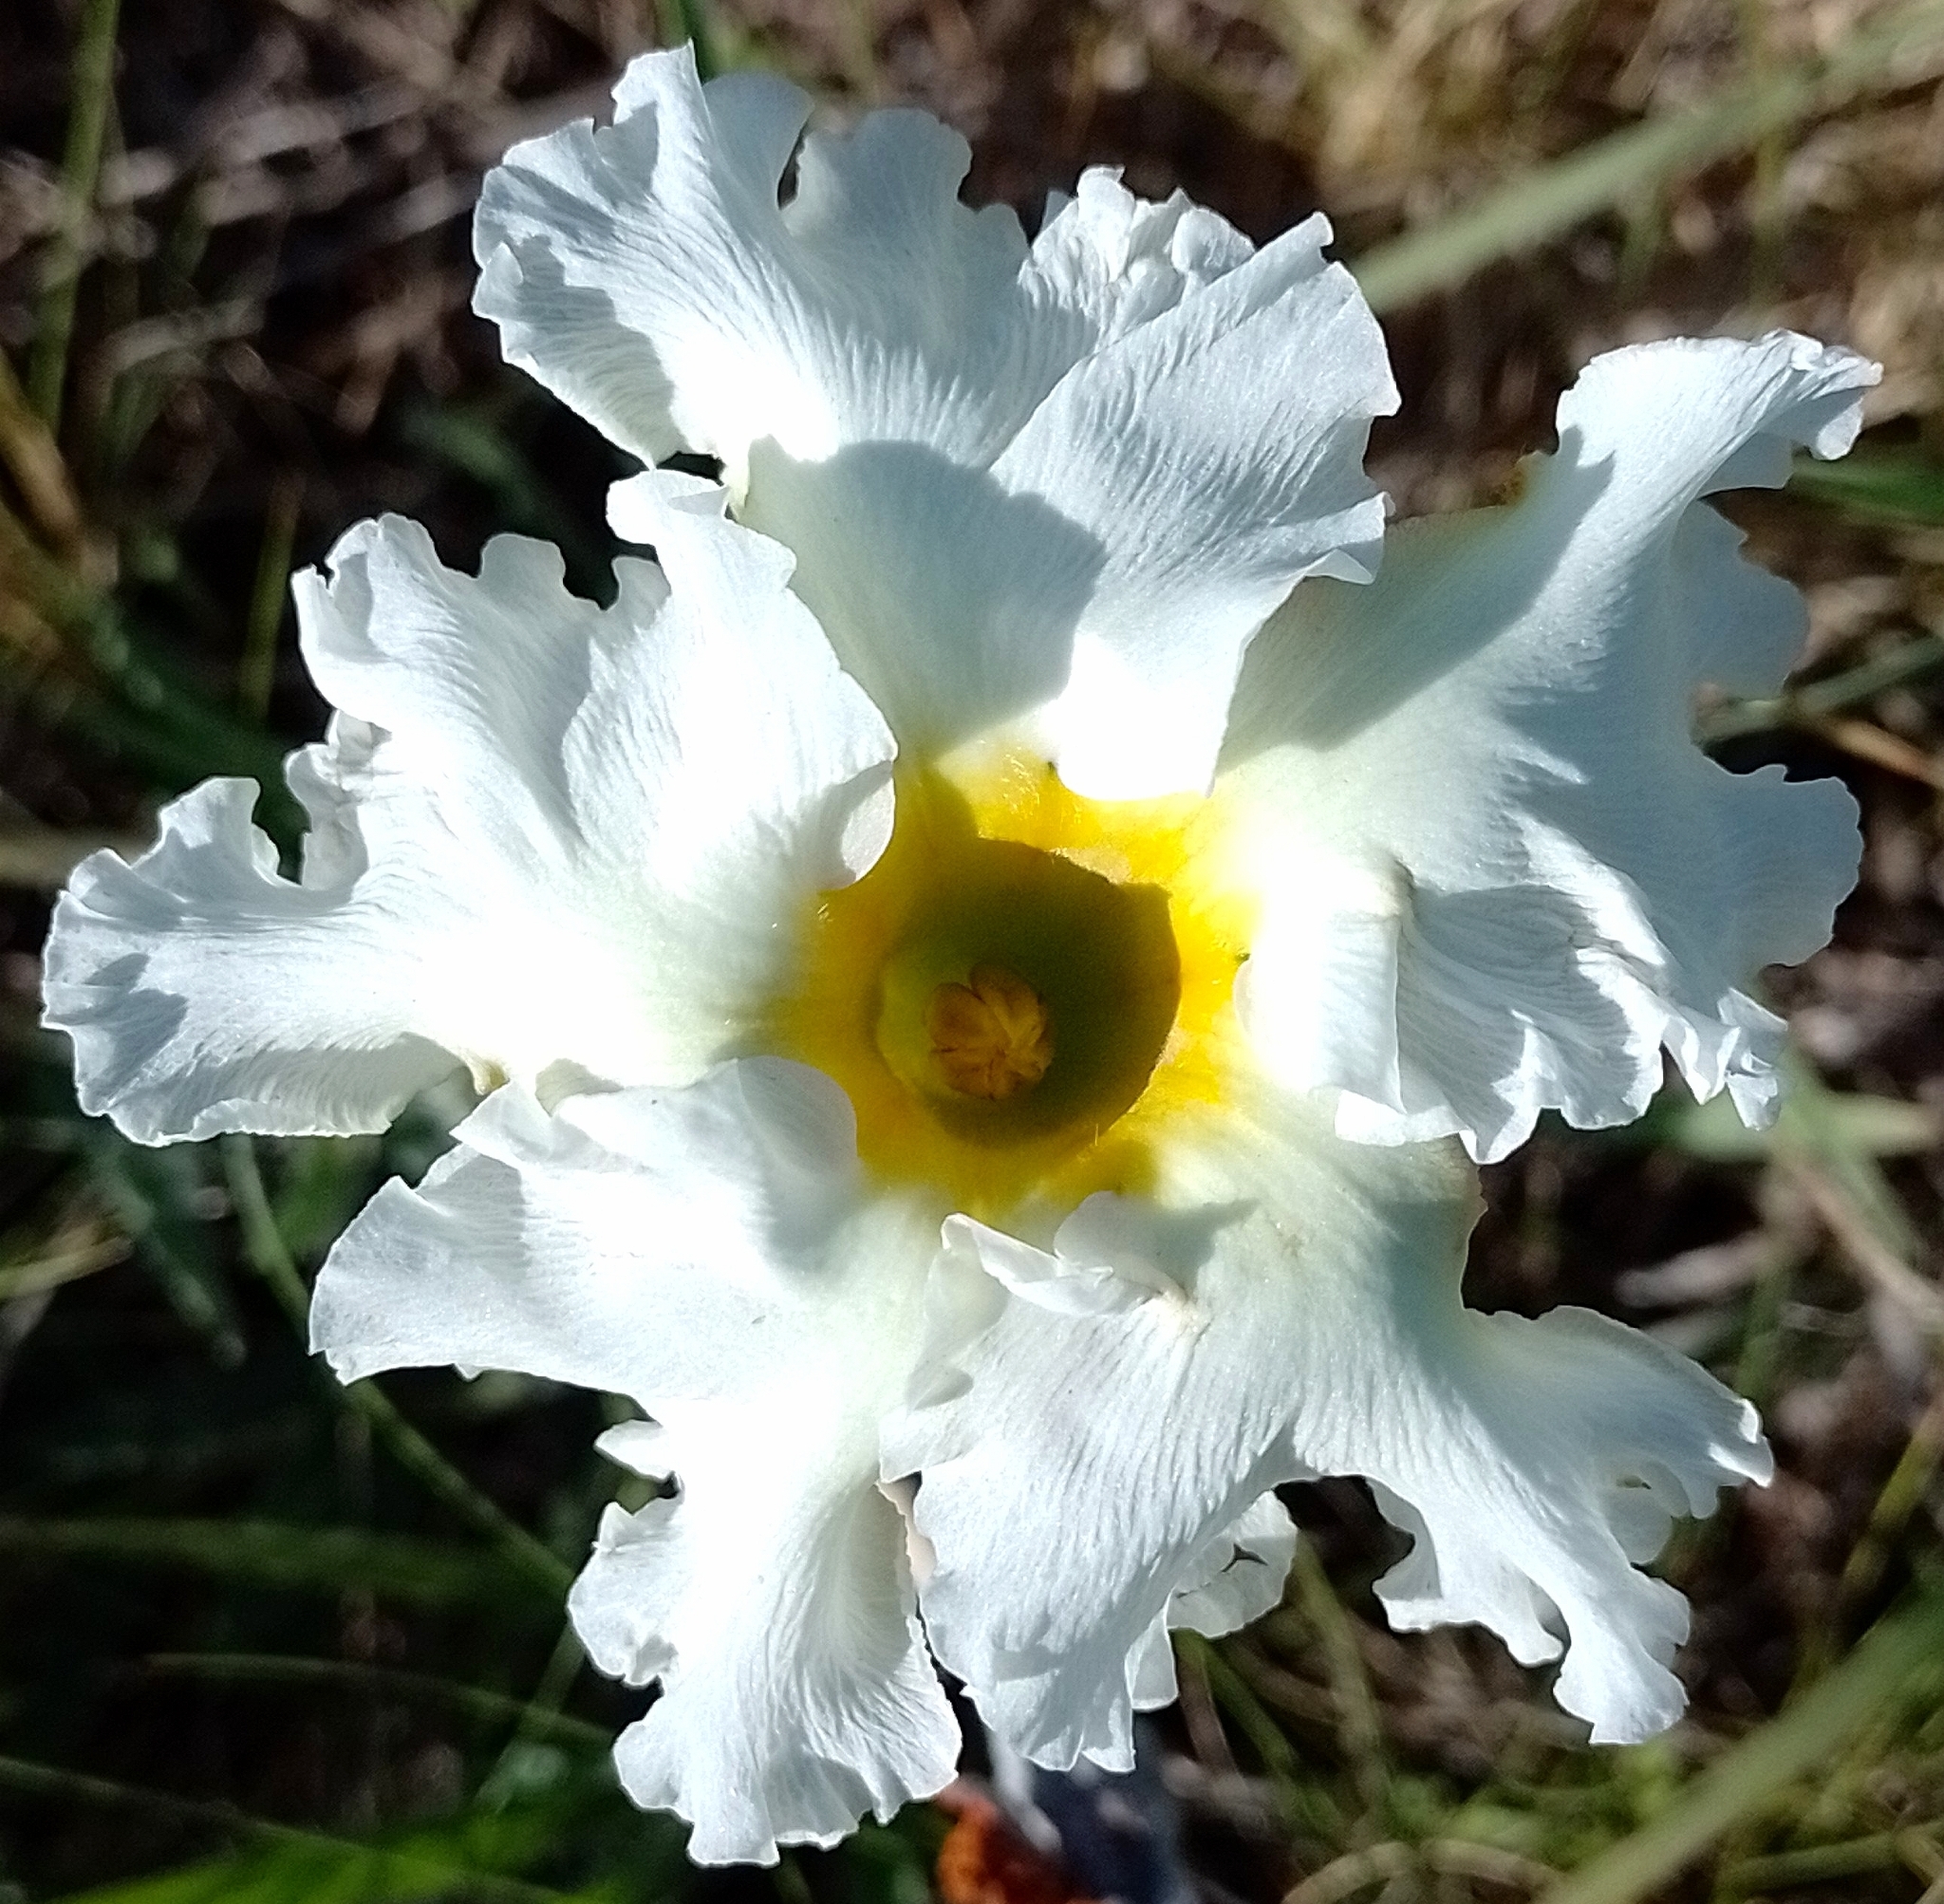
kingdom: Plantae
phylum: Tracheophyta
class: Magnoliopsida
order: Gentianales
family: Apocynaceae
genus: Mandevilla
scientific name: Mandevilla petraea
